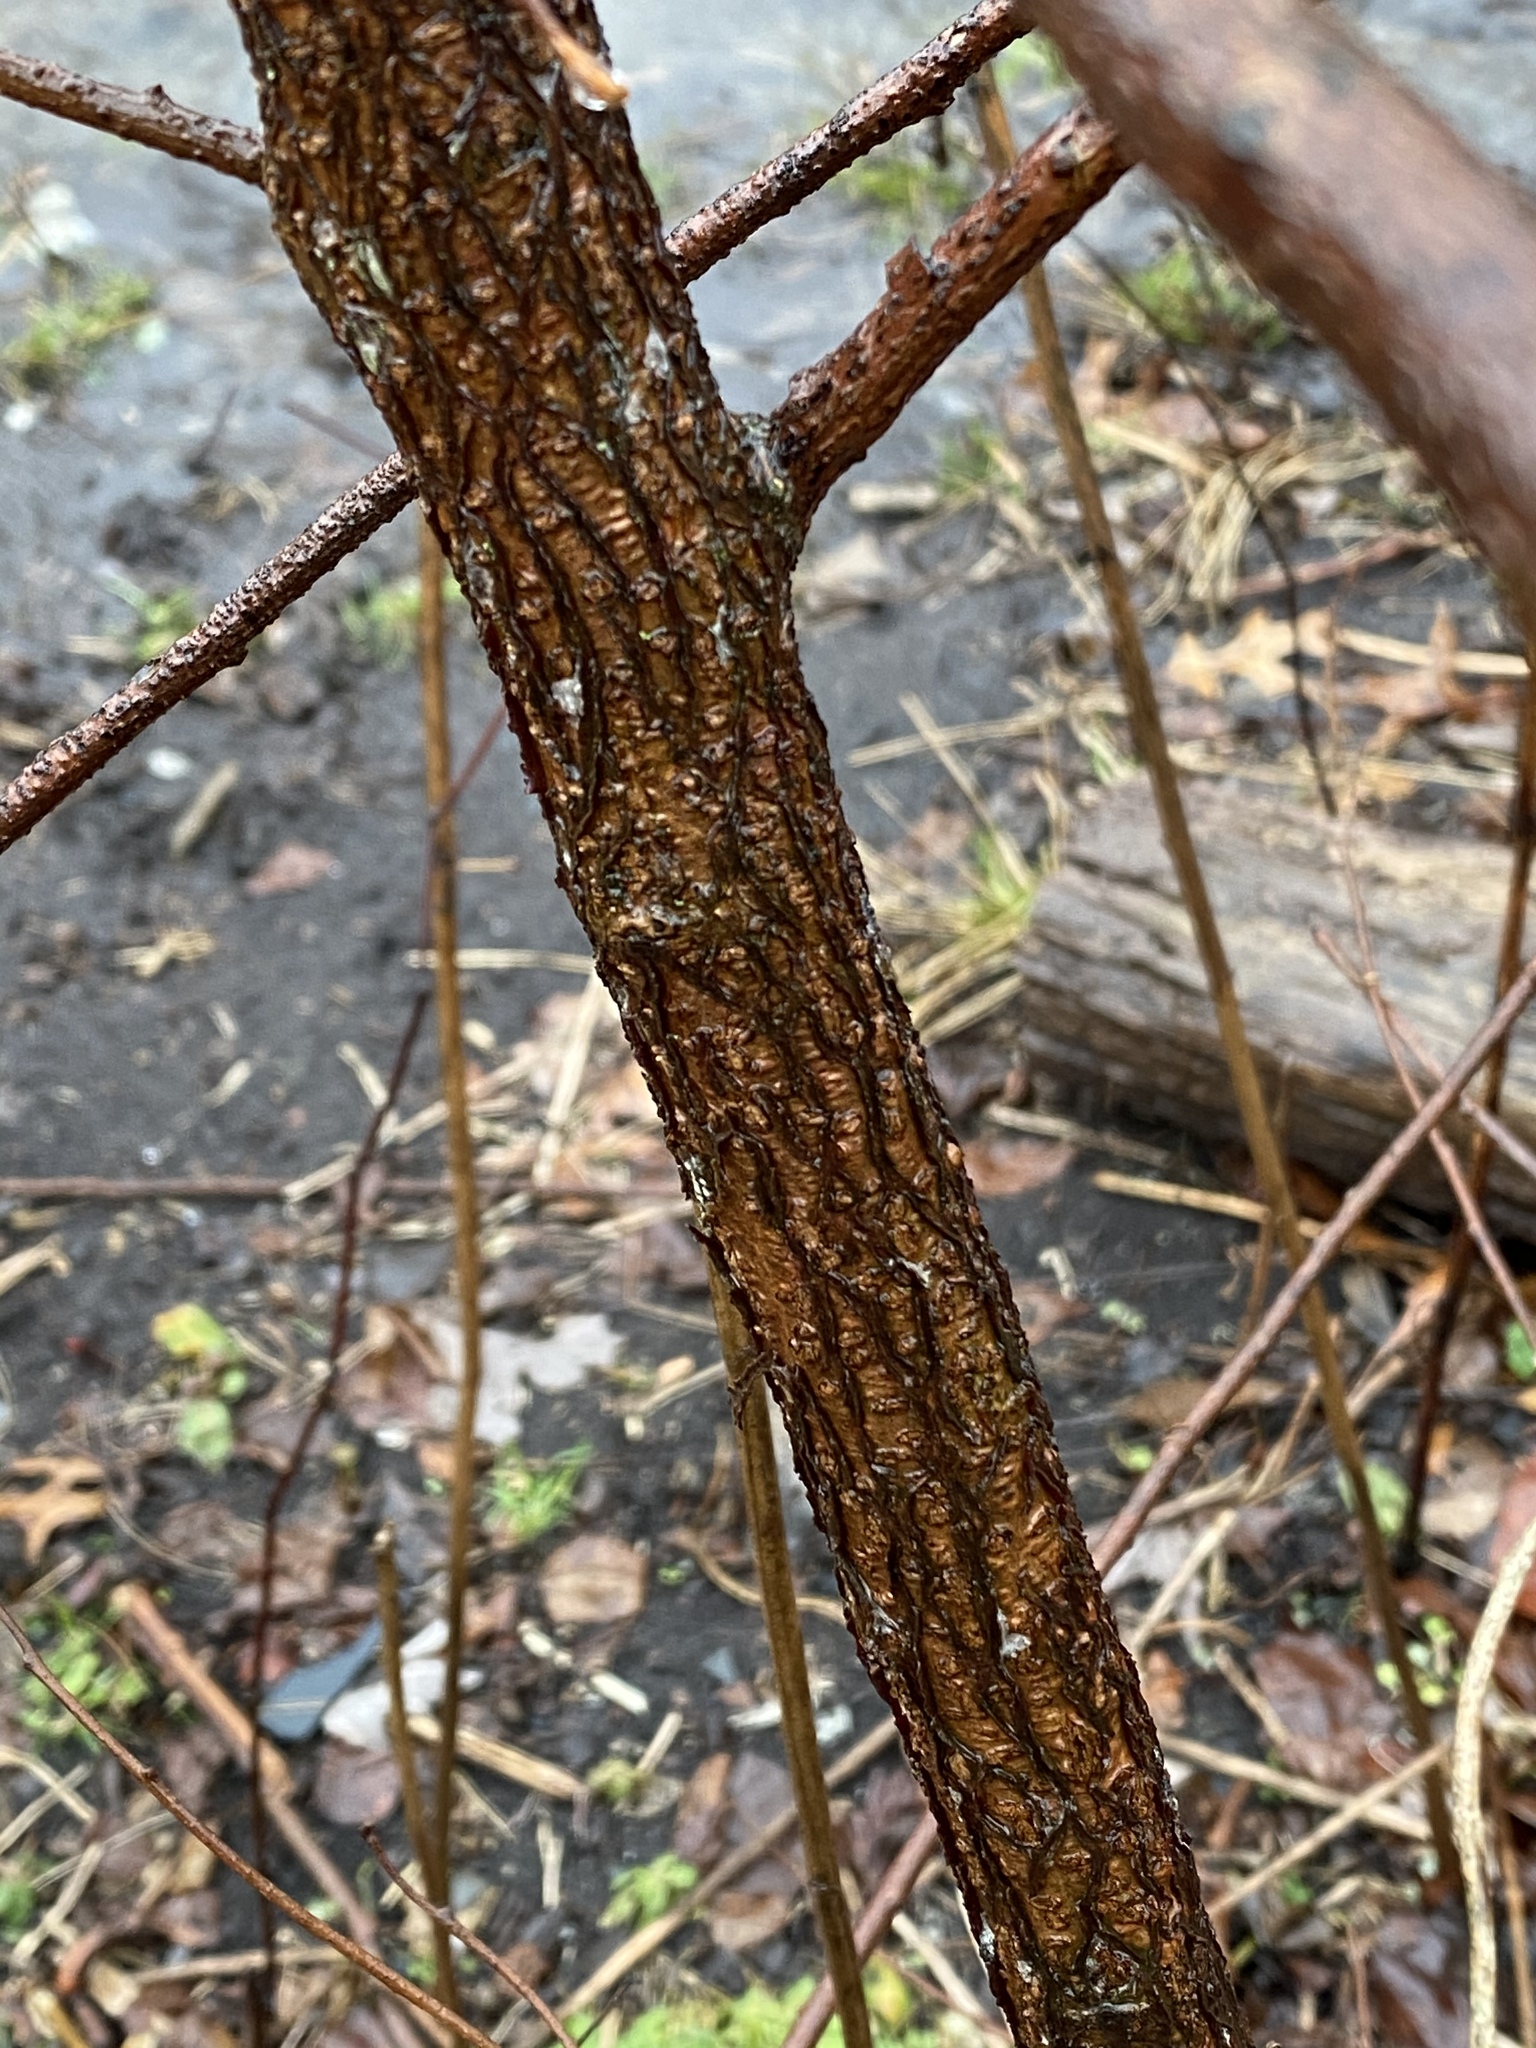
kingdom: Plantae
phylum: Tracheophyta
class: Magnoliopsida
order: Sapindales
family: Anacardiaceae
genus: Rhus
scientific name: Rhus aromatica
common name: Aromatic sumac
